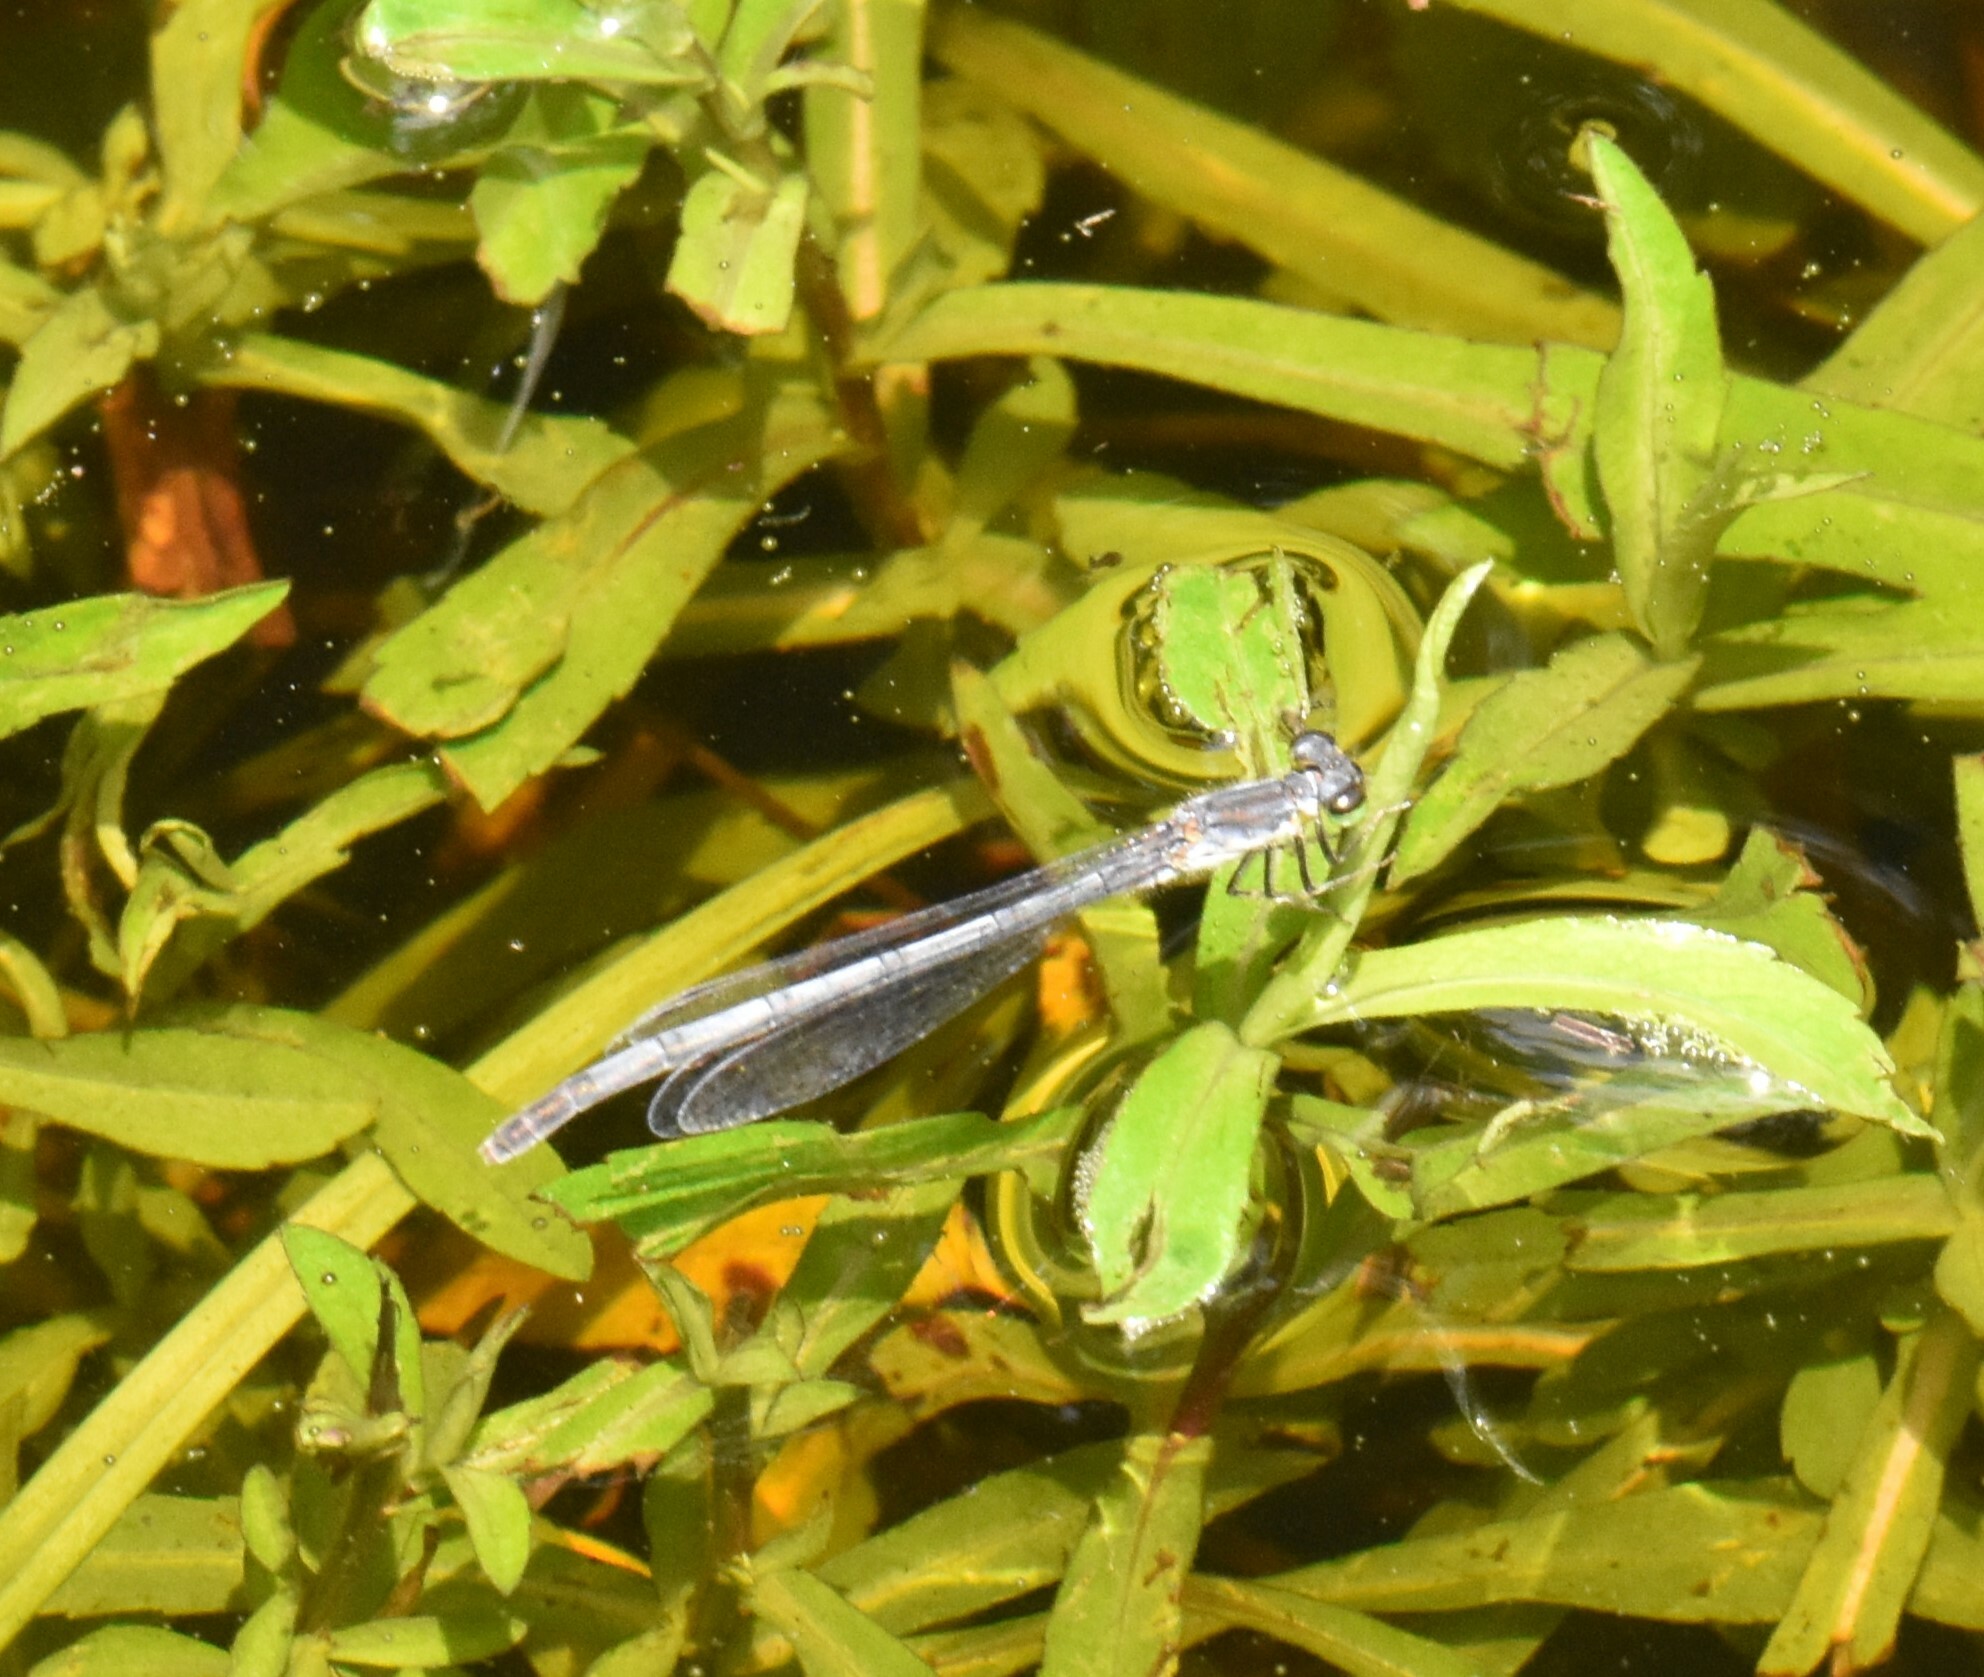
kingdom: Animalia
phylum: Arthropoda
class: Insecta
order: Odonata
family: Coenagrionidae
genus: Ischnura
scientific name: Ischnura verticalis
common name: Eastern forktail
